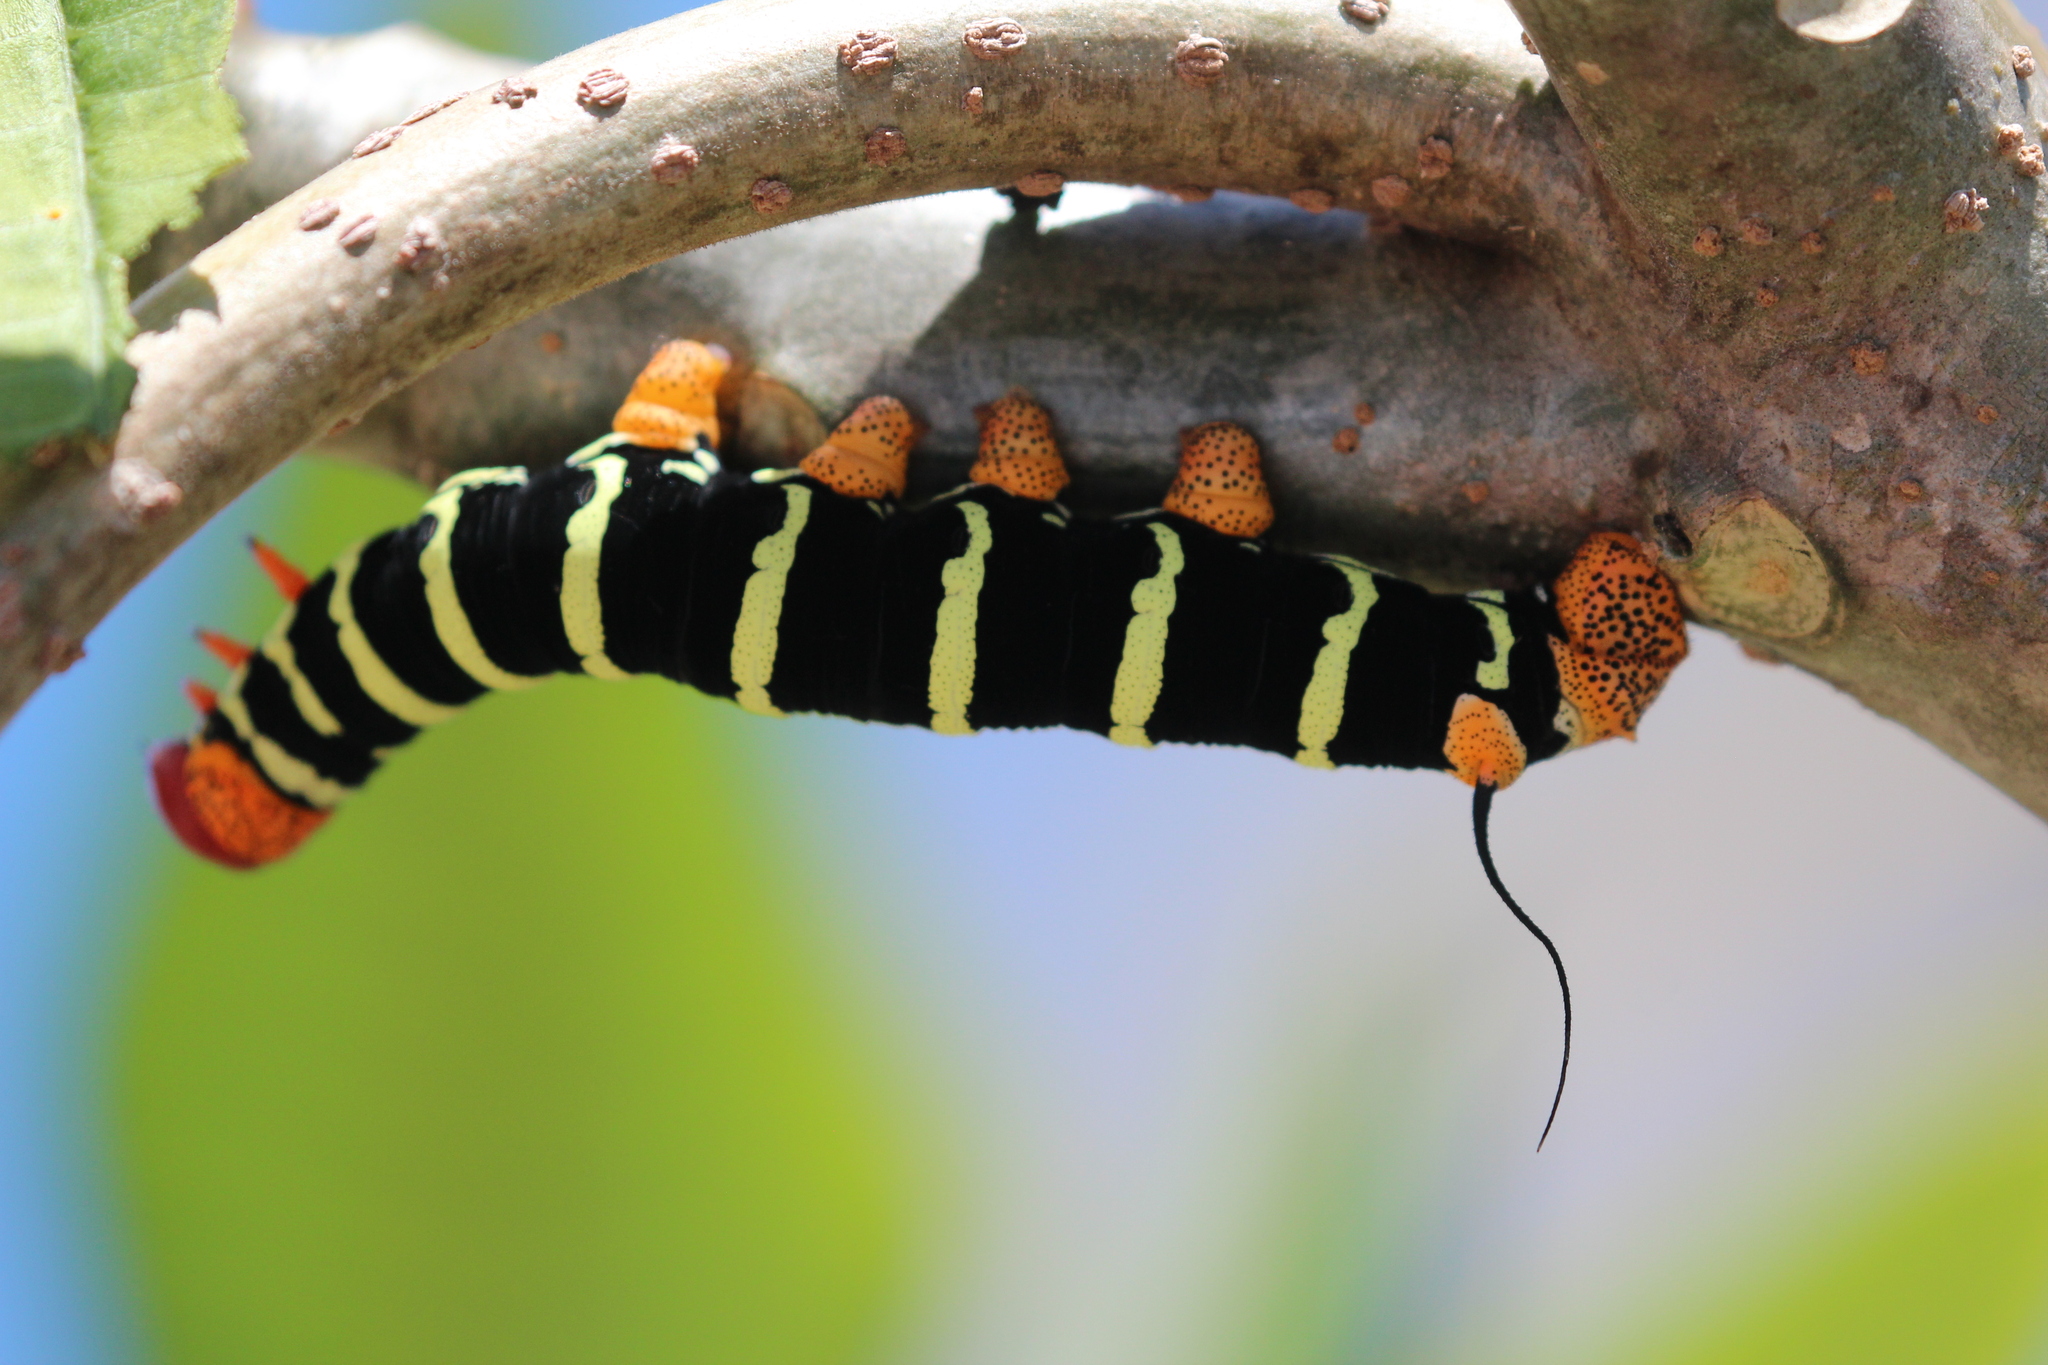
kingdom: Animalia
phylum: Arthropoda
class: Insecta
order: Lepidoptera
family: Sphingidae
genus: Pseudosphinx
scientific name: Pseudosphinx tetrio
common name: Tetrio sphinx
